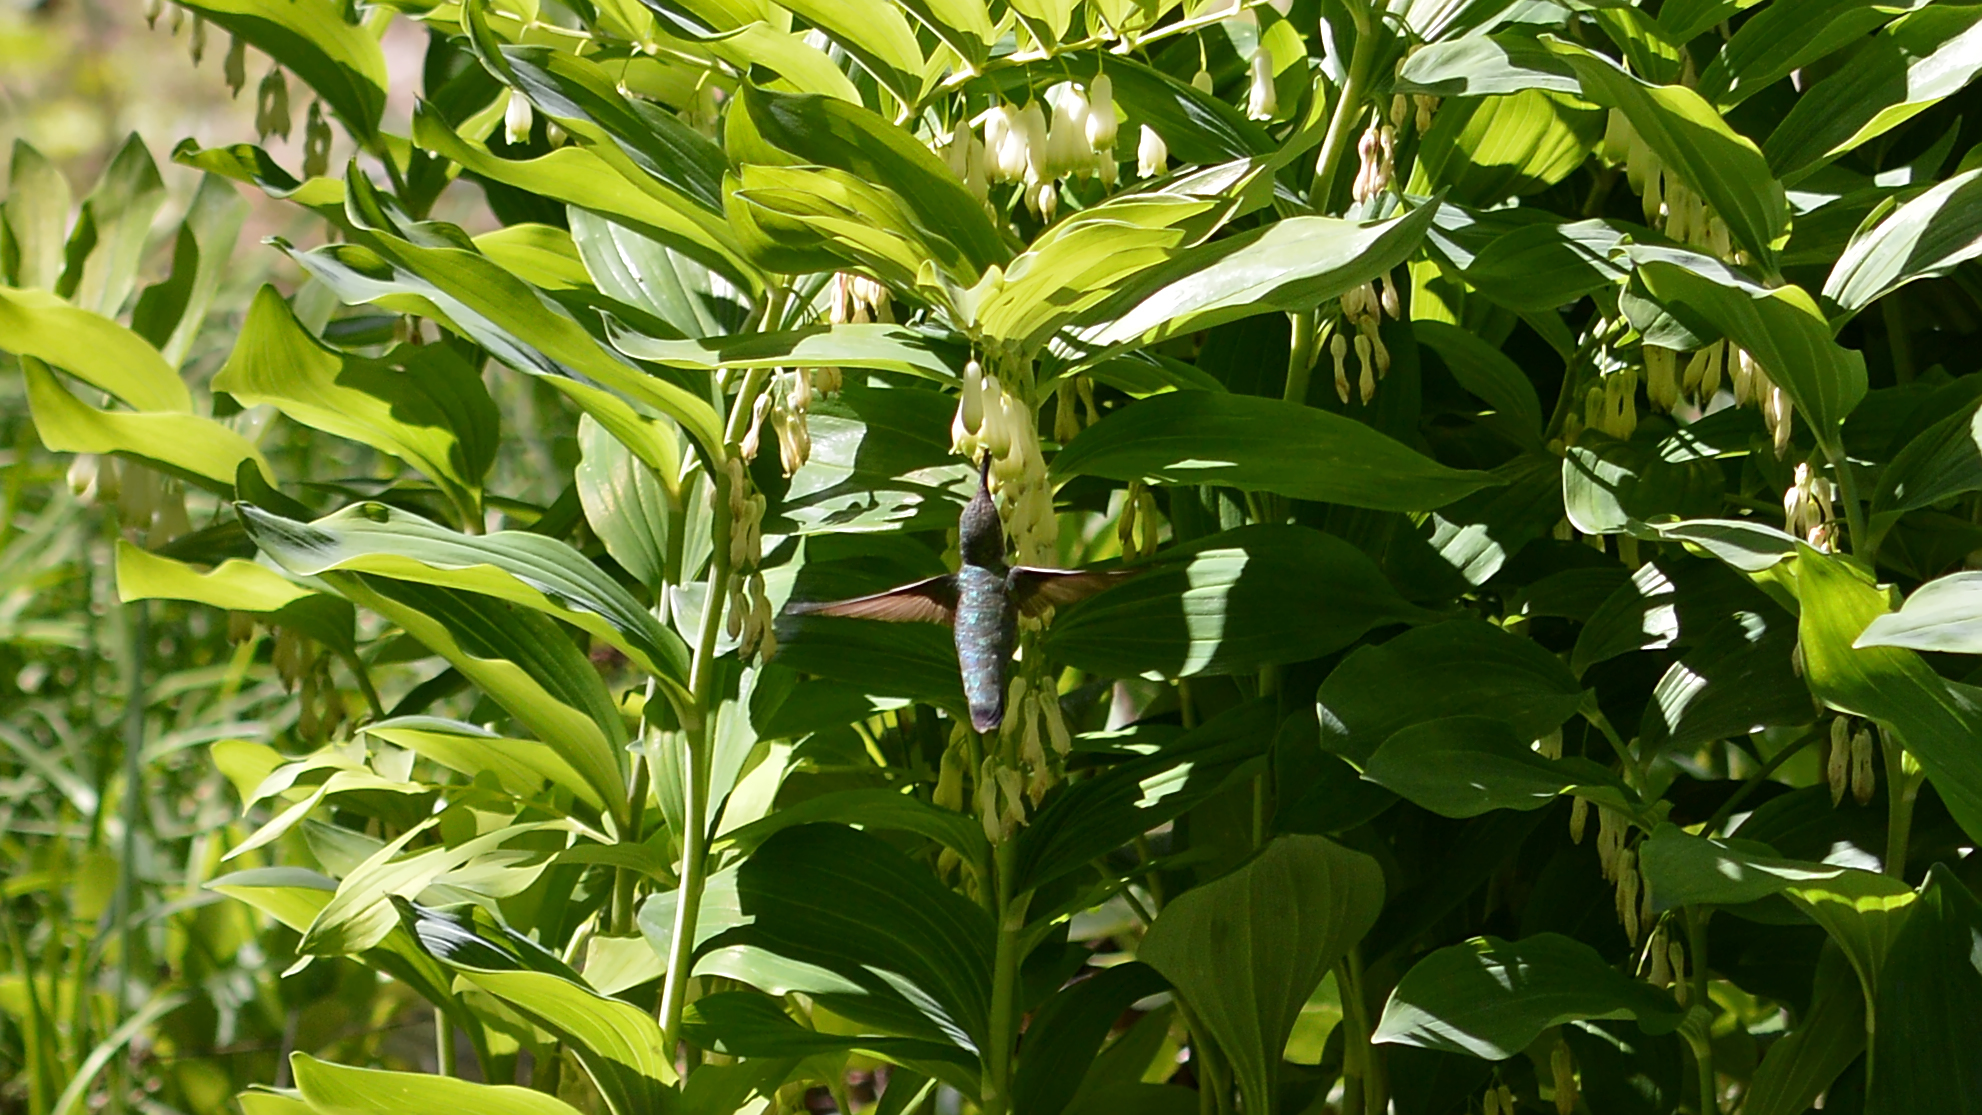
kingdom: Animalia
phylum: Chordata
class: Aves
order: Apodiformes
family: Trochilidae
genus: Archilochus
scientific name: Archilochus colubris
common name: Ruby-throated hummingbird
